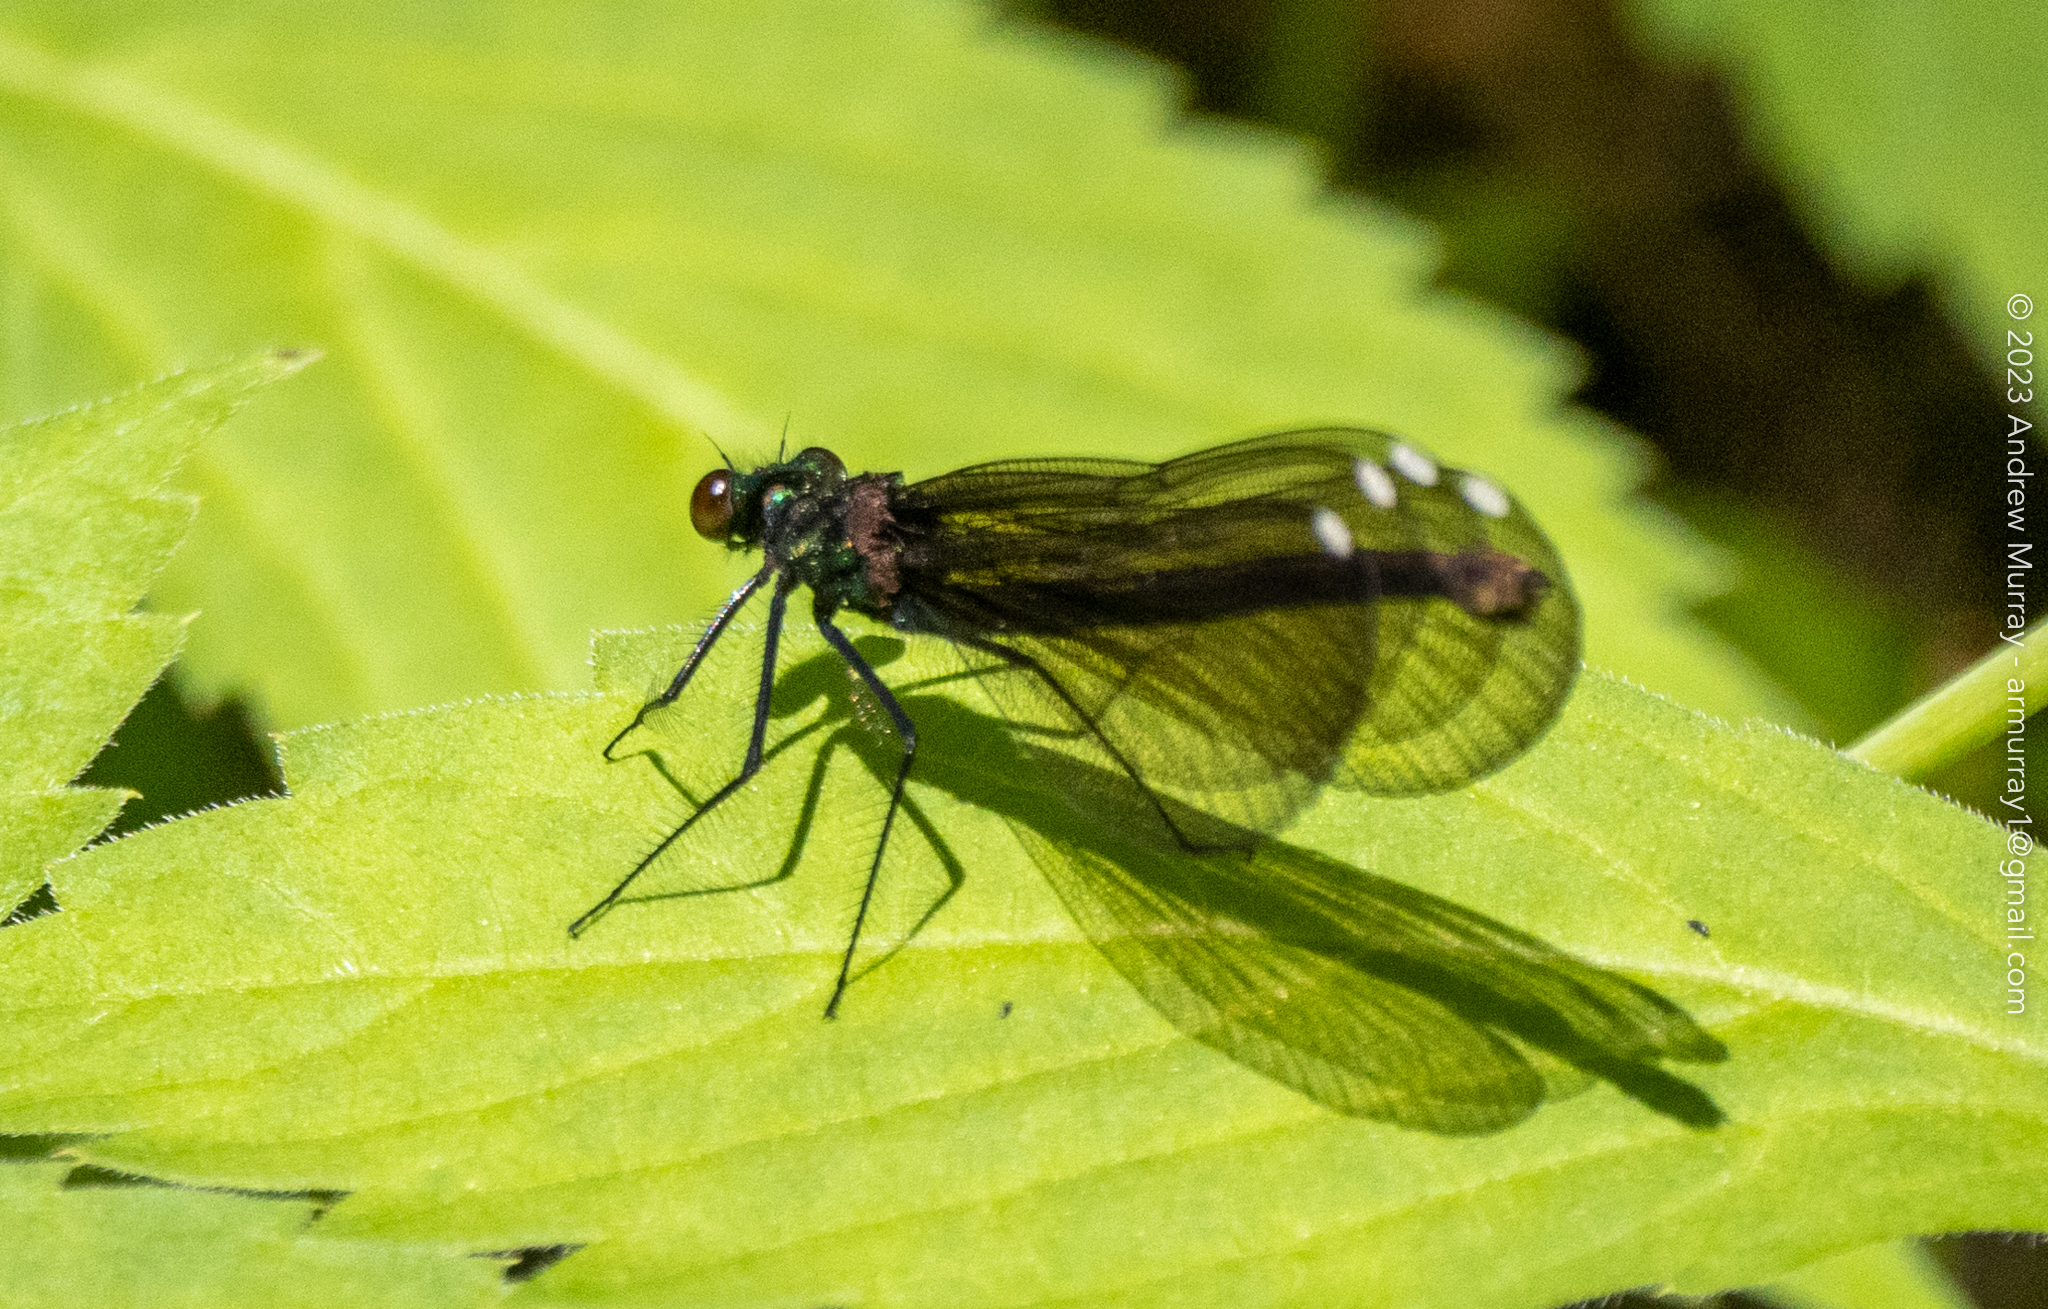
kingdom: Animalia
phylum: Arthropoda
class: Insecta
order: Odonata
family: Calopterygidae
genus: Calopteryx
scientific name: Calopteryx maculata
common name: Ebony jewelwing
